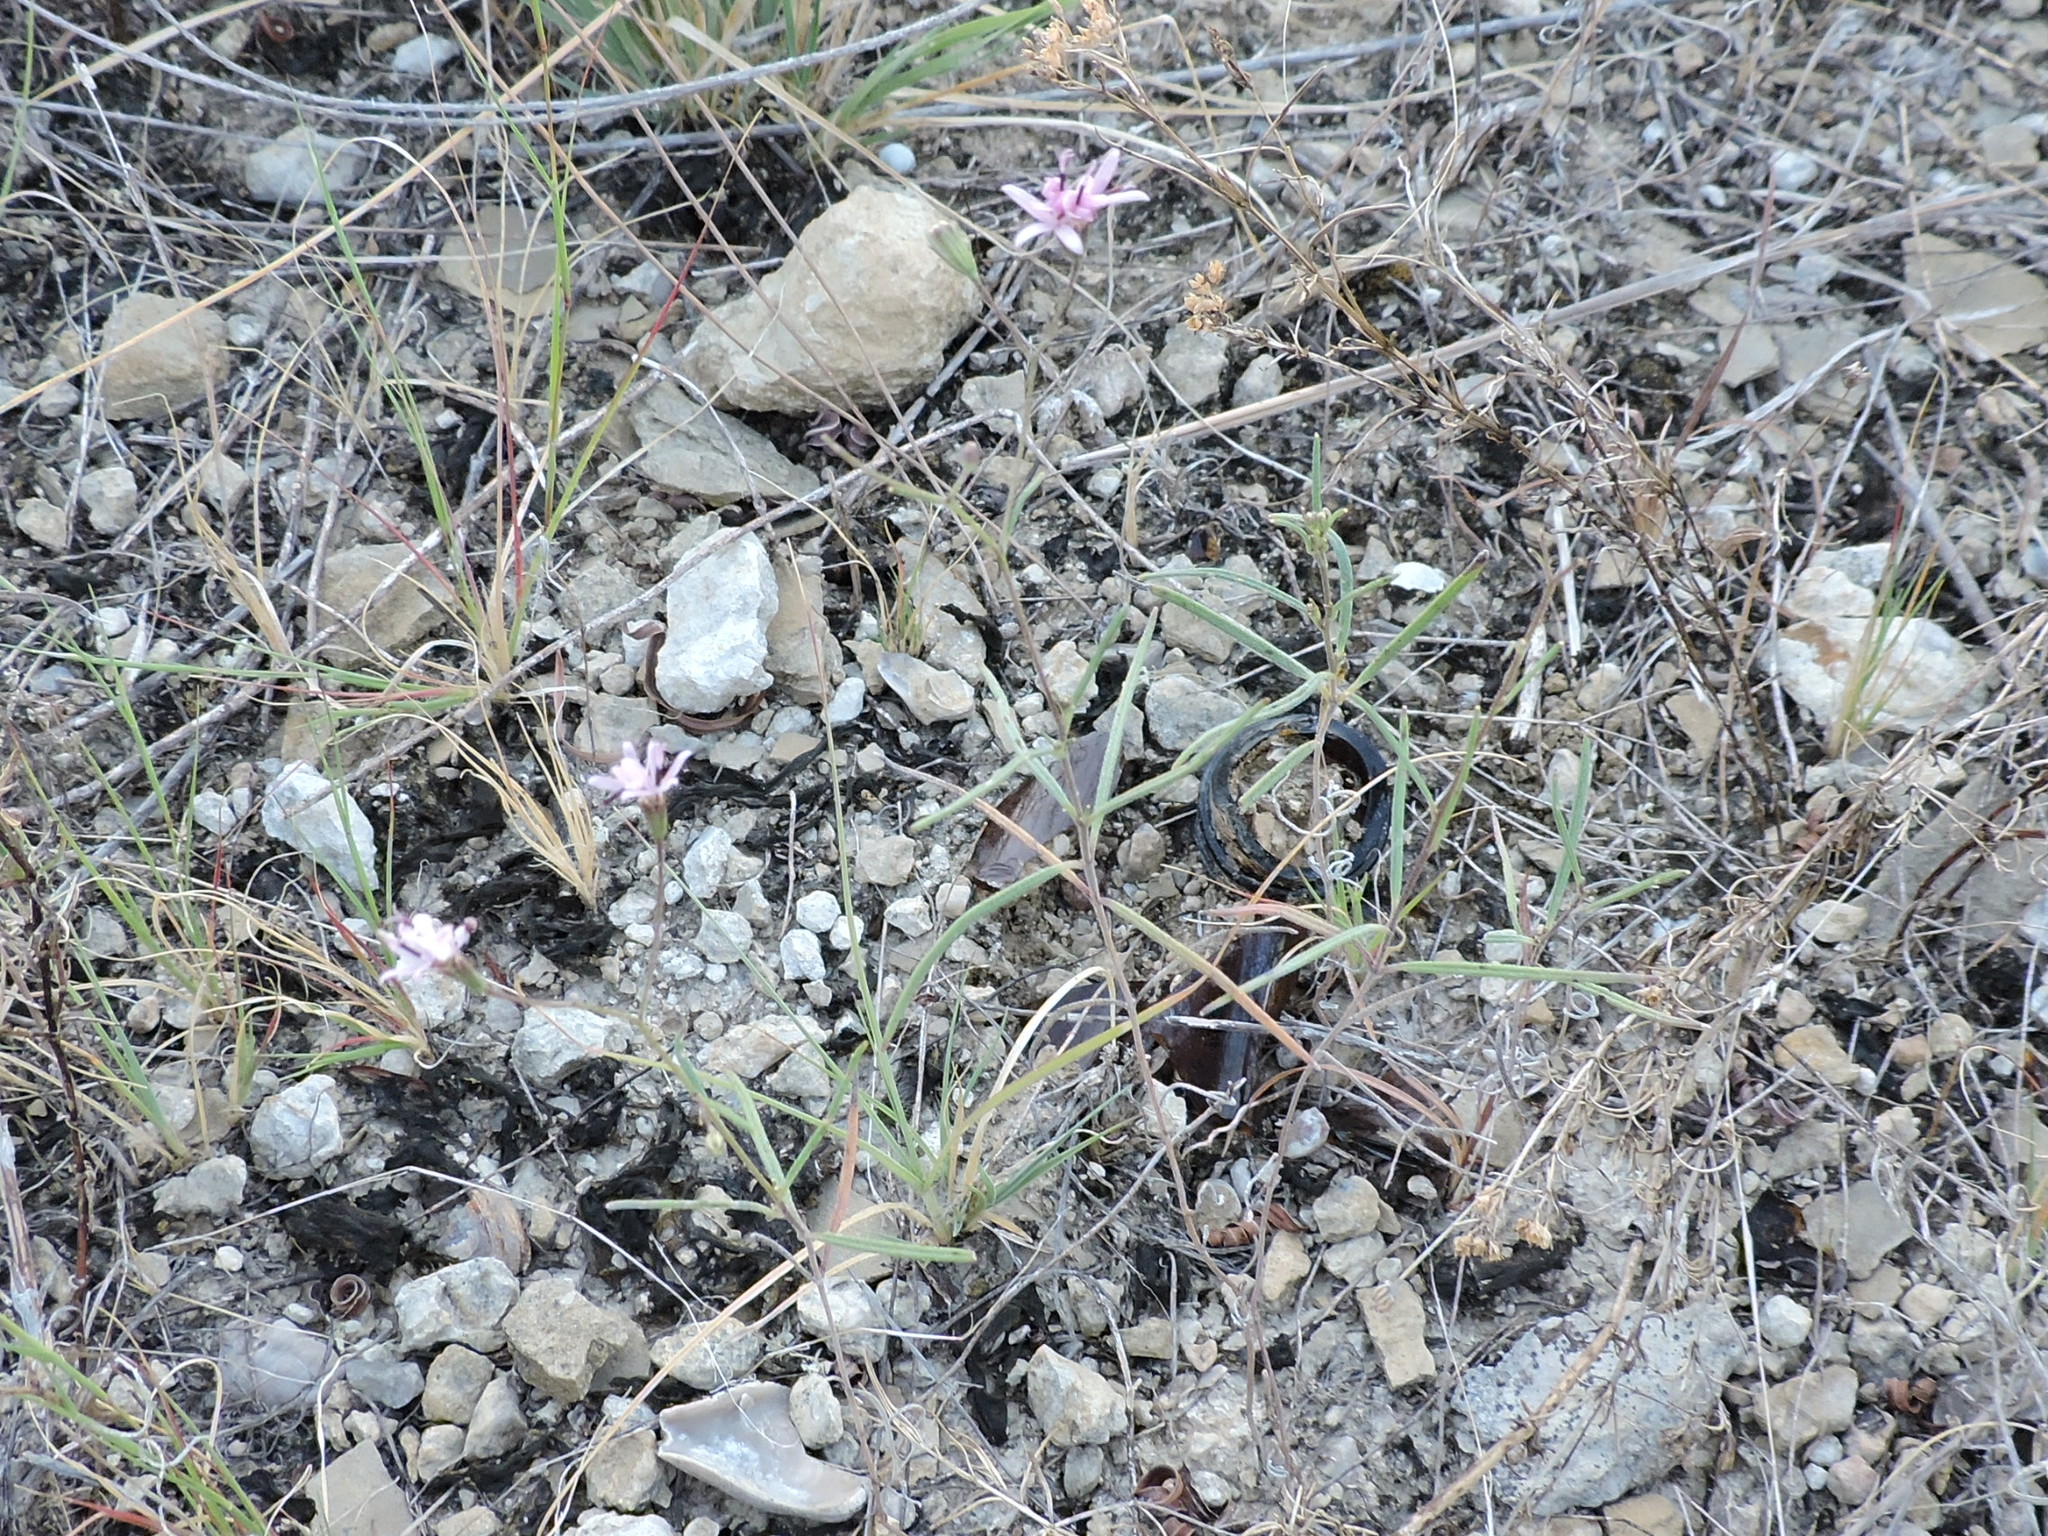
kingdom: Plantae
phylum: Tracheophyta
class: Magnoliopsida
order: Asterales
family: Asteraceae
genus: Palafoxia
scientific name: Palafoxia callosa
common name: Small palafox
